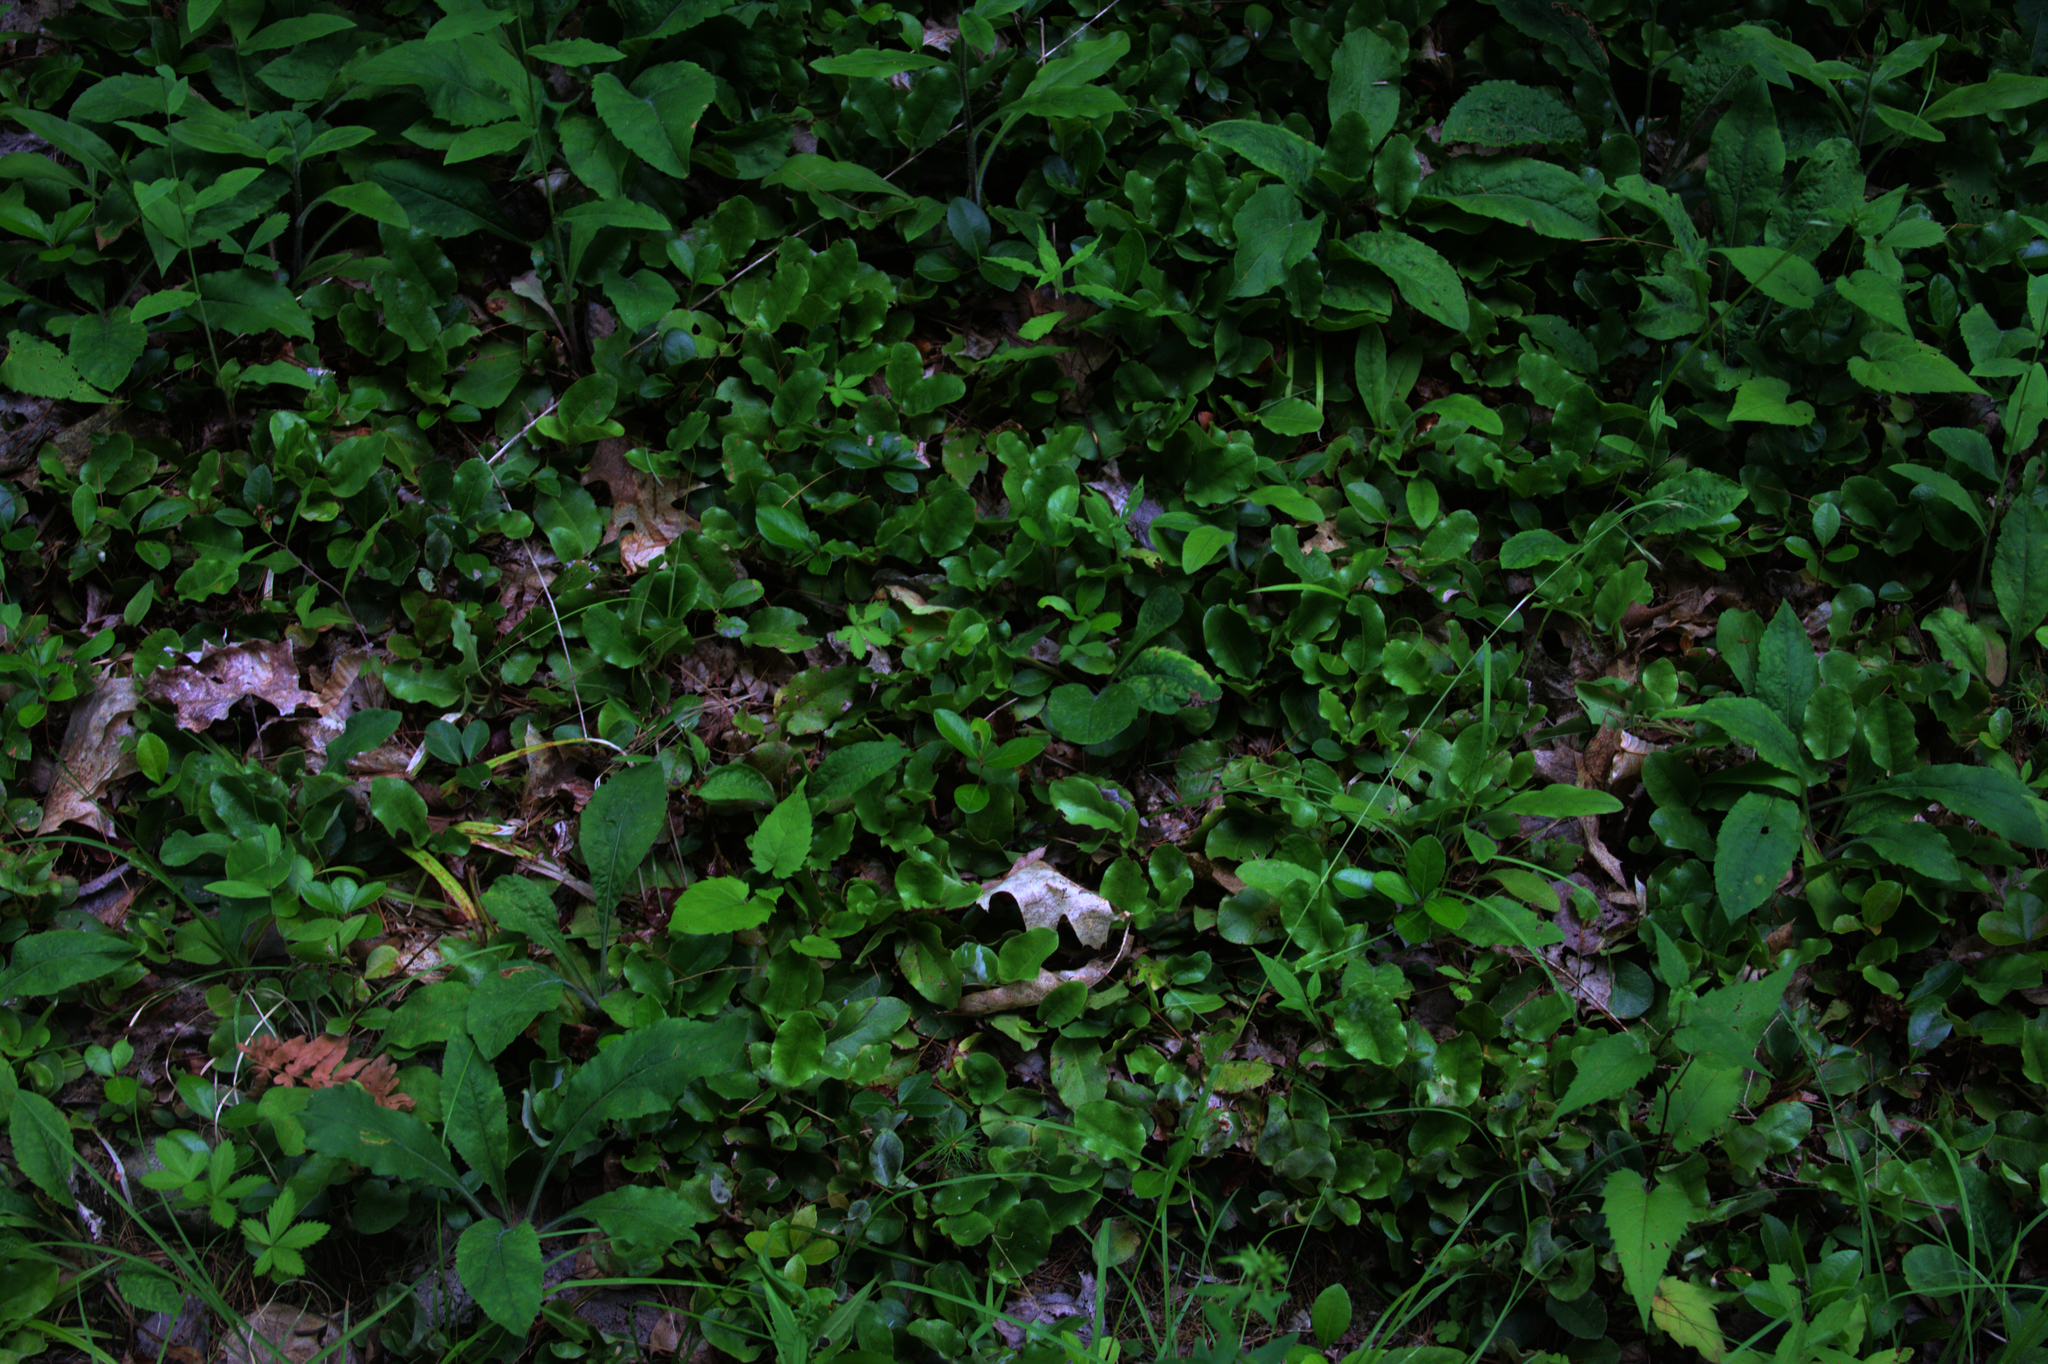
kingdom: Plantae
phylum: Tracheophyta
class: Magnoliopsida
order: Ericales
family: Ericaceae
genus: Epigaea
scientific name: Epigaea repens
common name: Gravelroot
